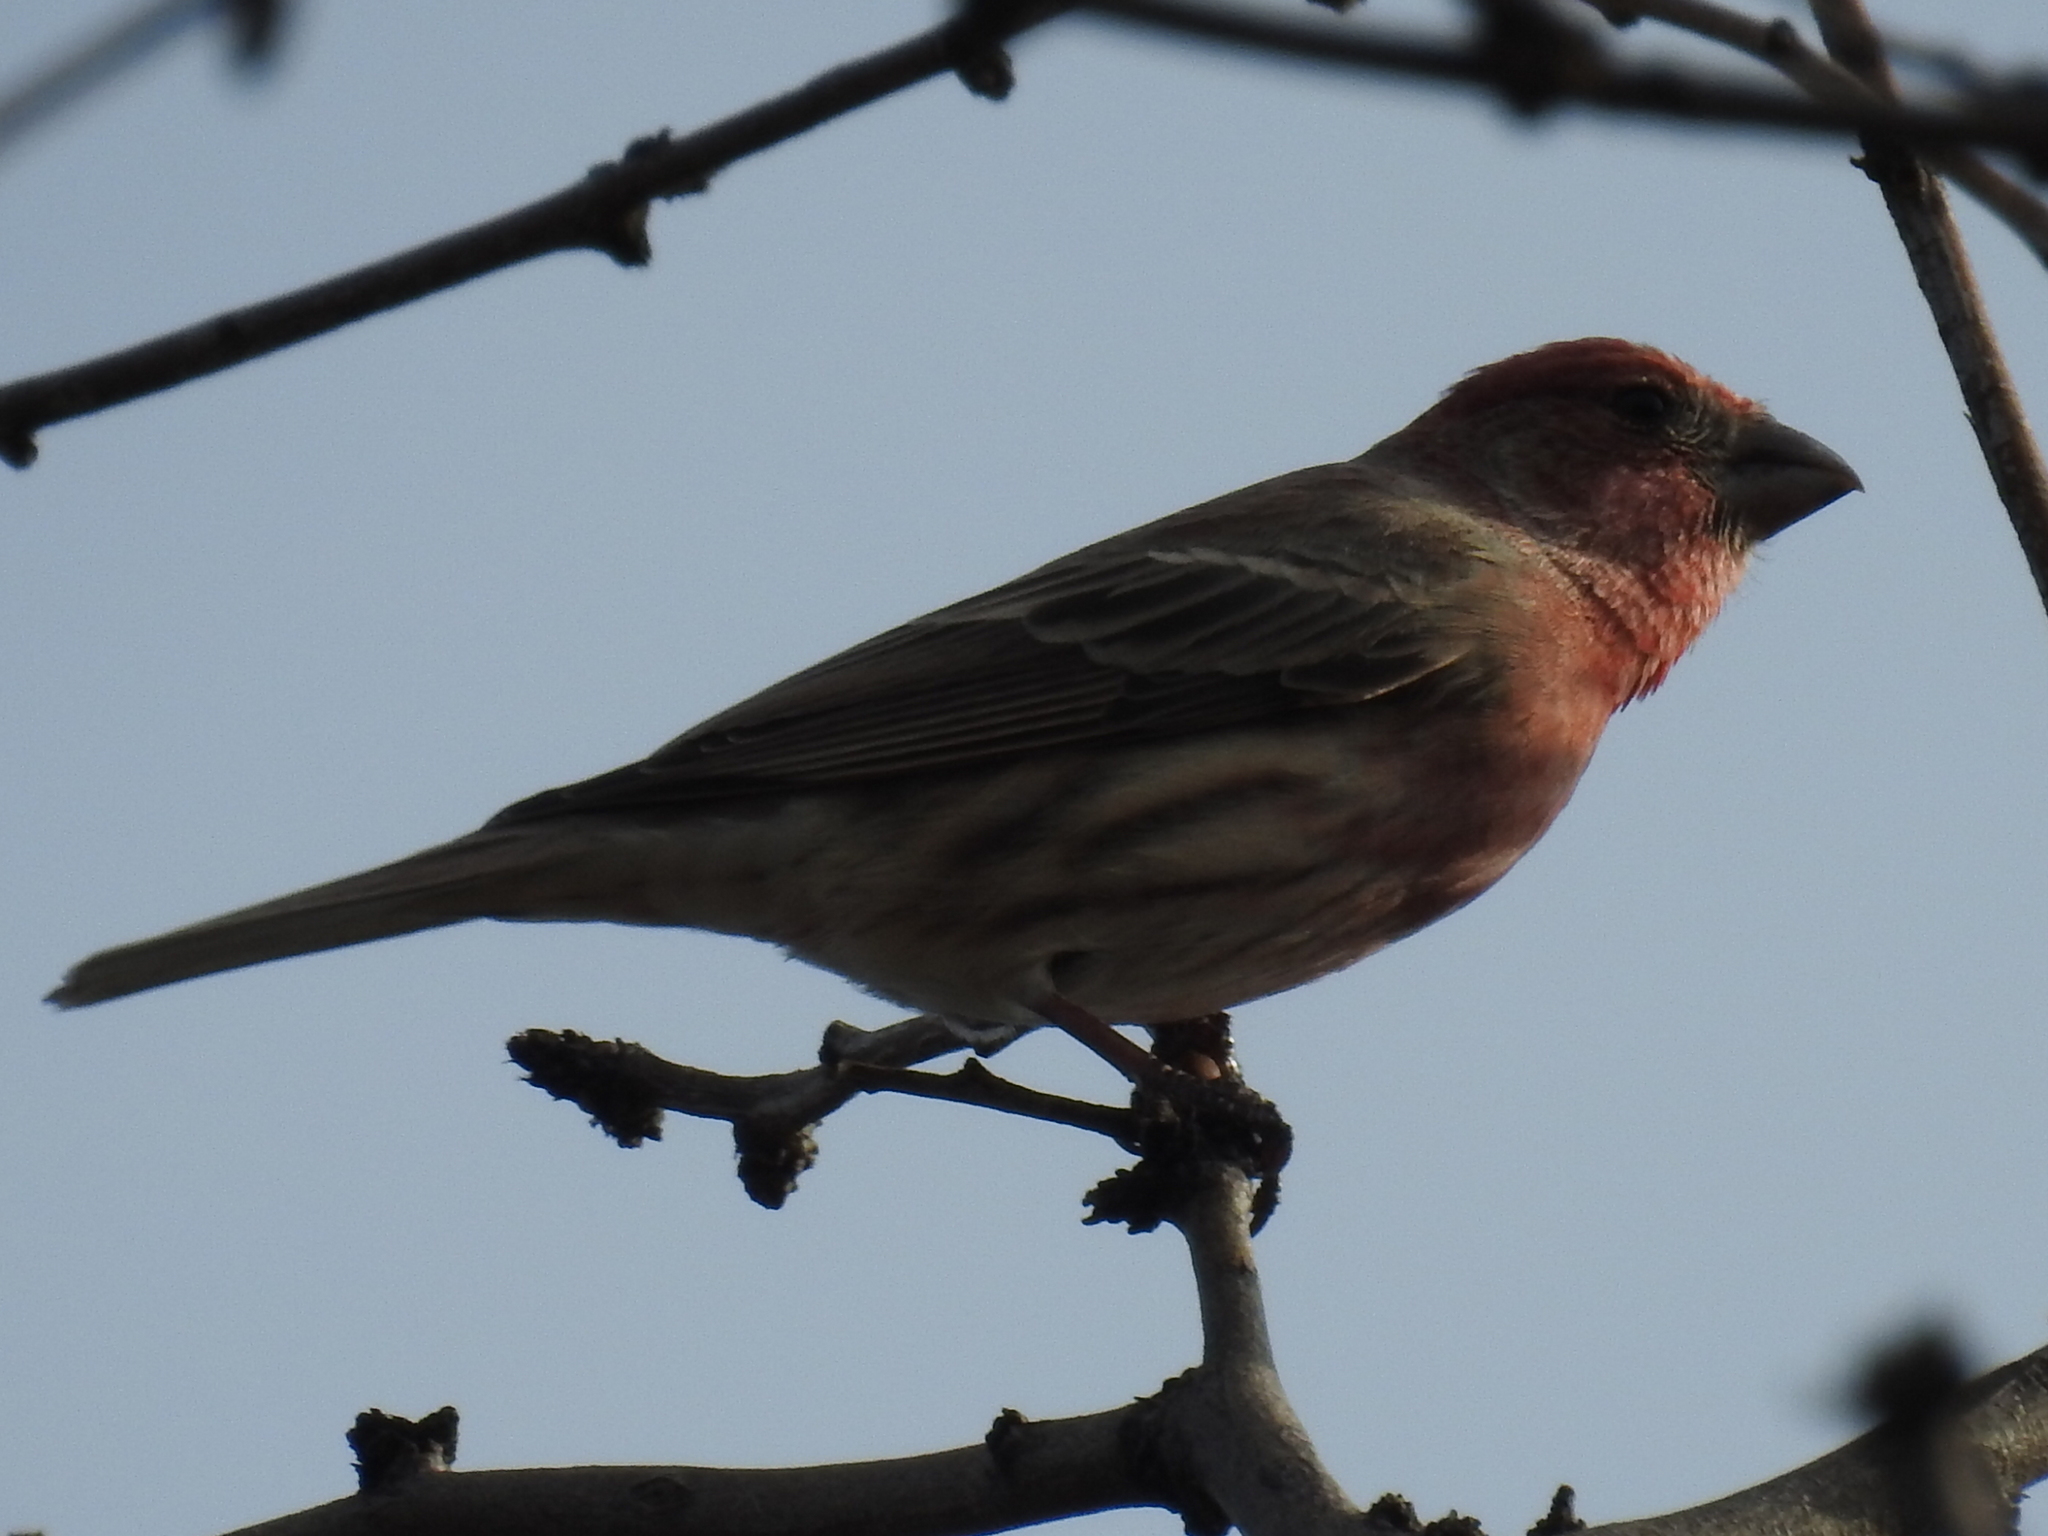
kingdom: Animalia
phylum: Chordata
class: Aves
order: Passeriformes
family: Fringillidae
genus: Haemorhous
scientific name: Haemorhous mexicanus
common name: House finch
